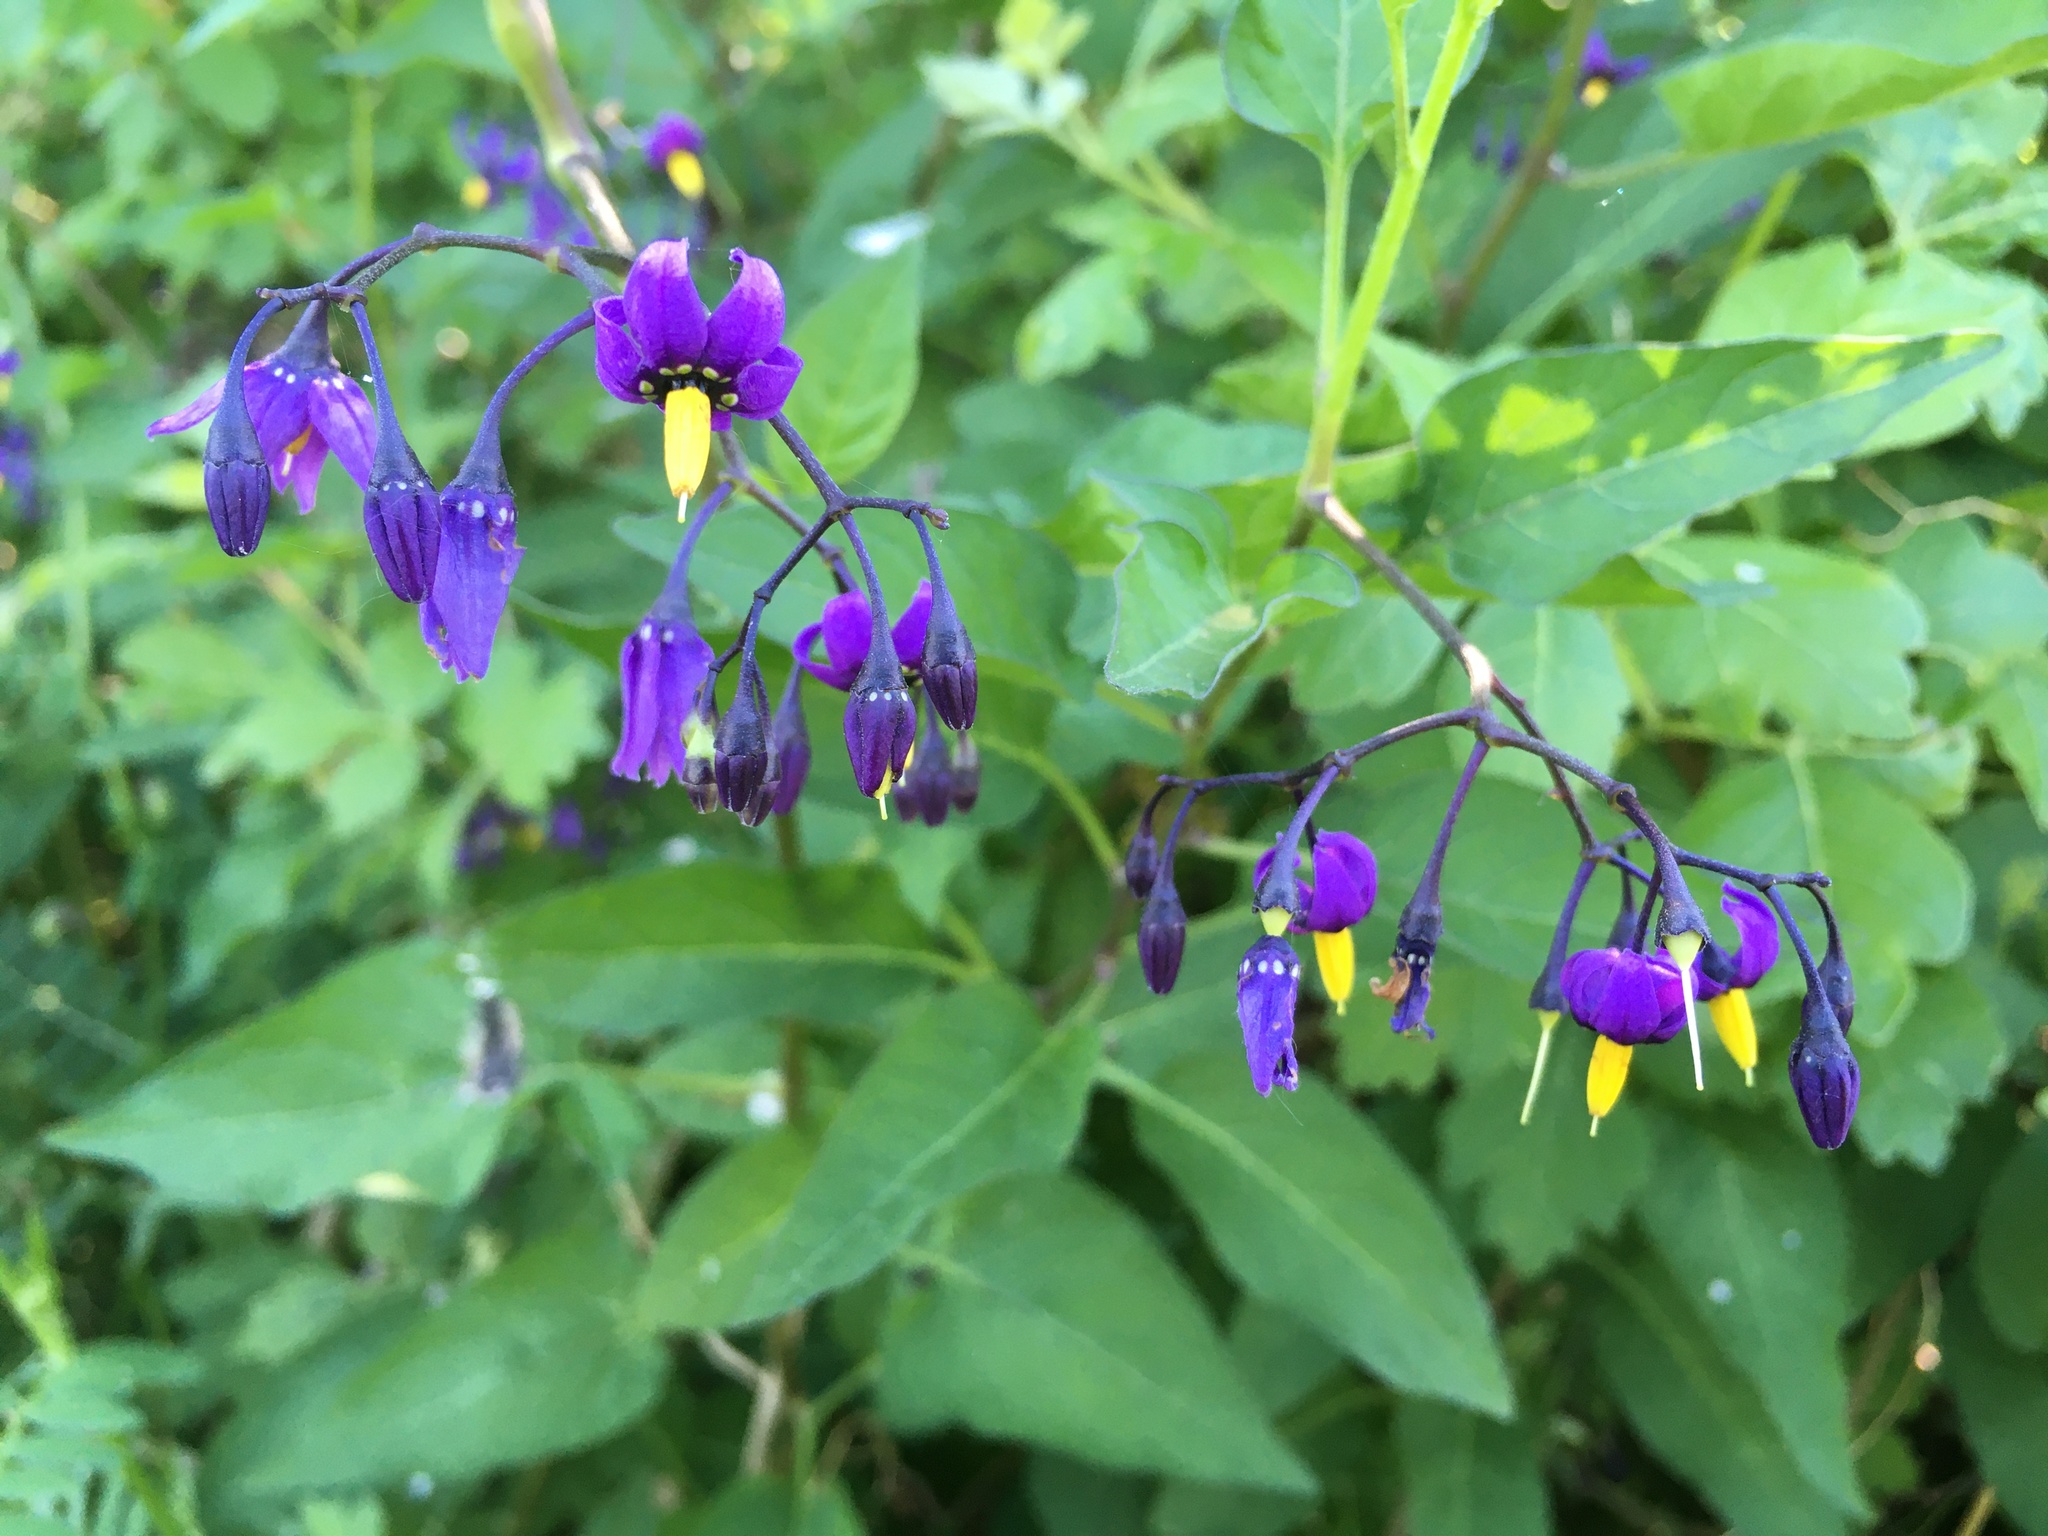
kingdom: Plantae
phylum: Tracheophyta
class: Magnoliopsida
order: Solanales
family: Solanaceae
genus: Solanum
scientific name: Solanum dulcamara
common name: Climbing nightshade
